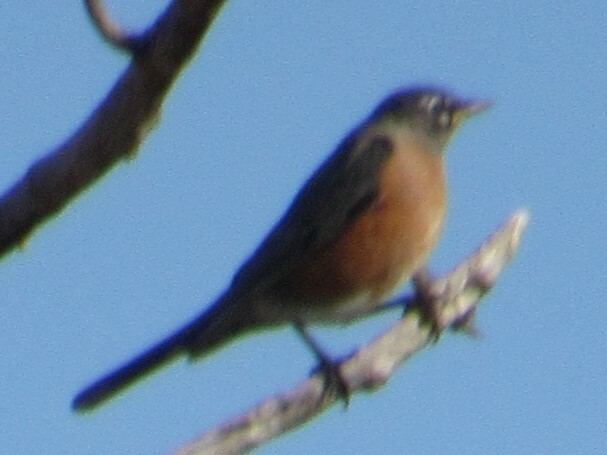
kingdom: Animalia
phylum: Chordata
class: Aves
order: Passeriformes
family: Turdidae
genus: Turdus
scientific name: Turdus migratorius
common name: American robin
